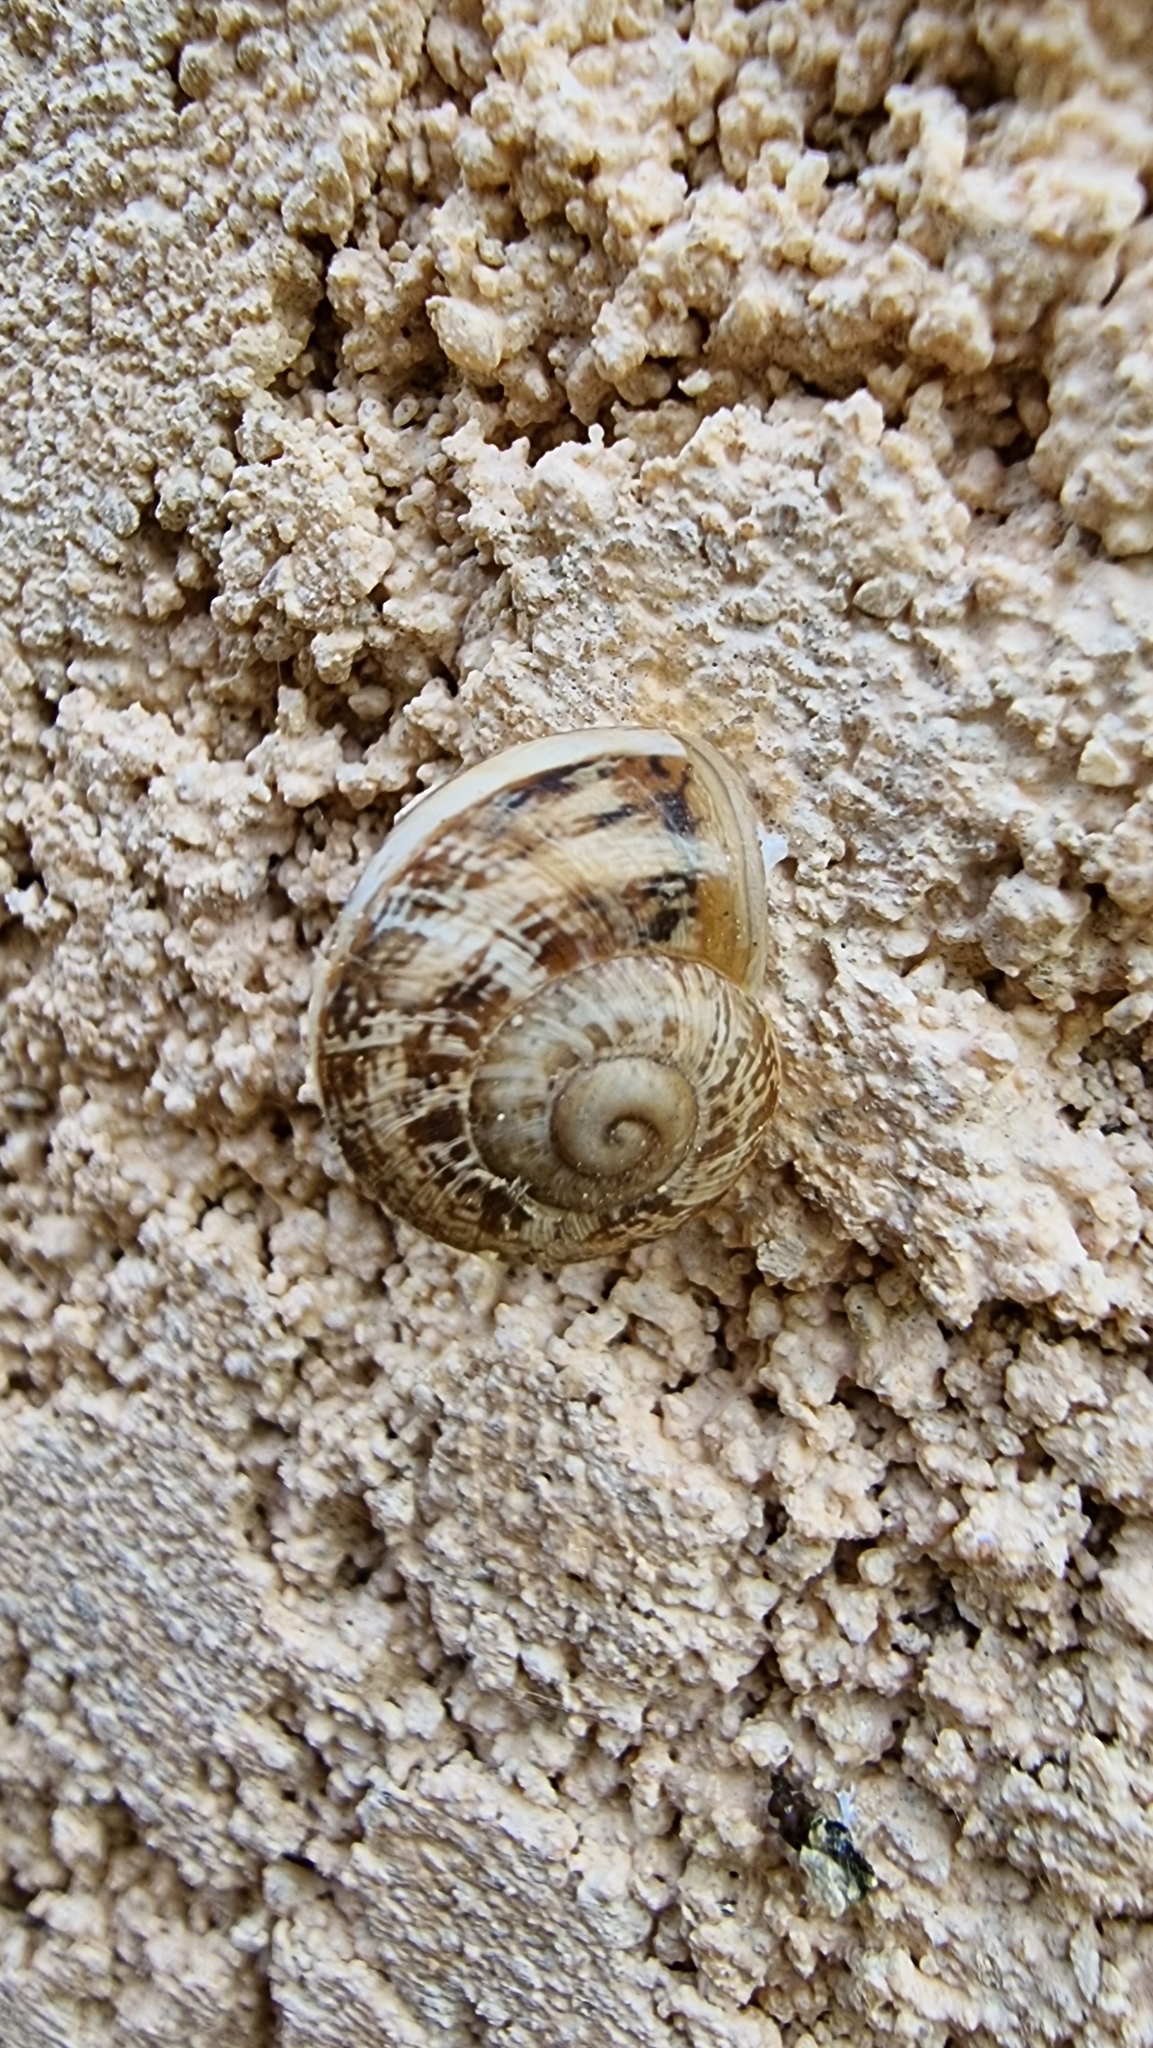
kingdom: Animalia
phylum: Mollusca
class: Gastropoda
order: Stylommatophora
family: Helicidae
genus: Eobania
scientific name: Eobania vermiculata
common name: Chocolateband snail
